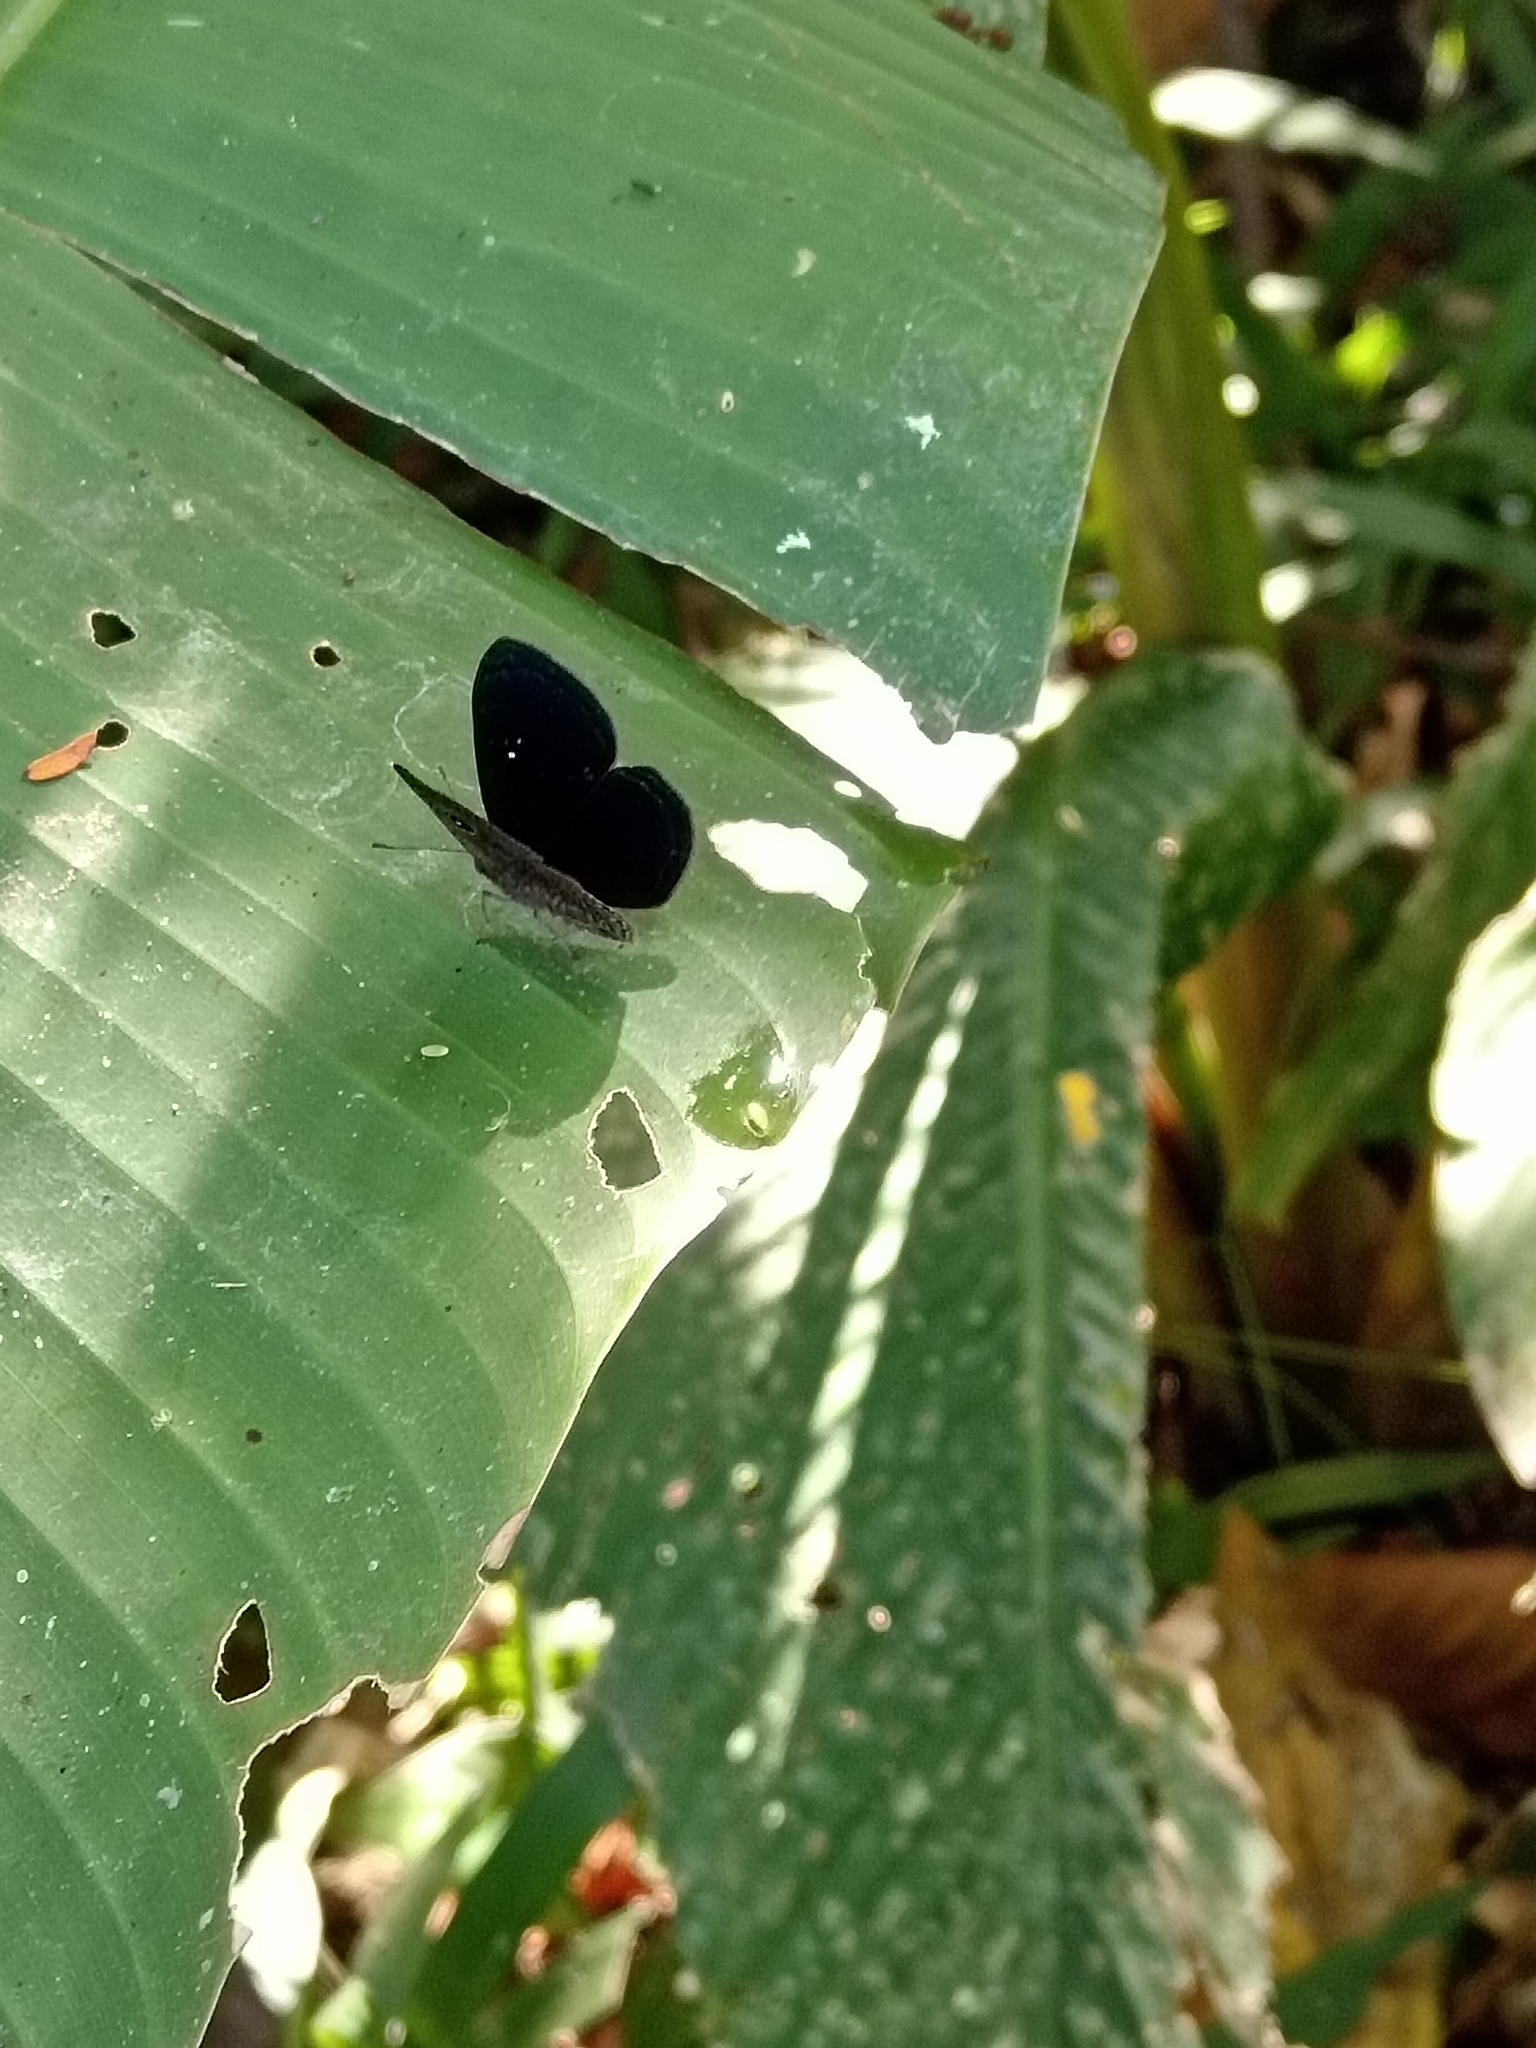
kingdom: Animalia
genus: Mesosemia
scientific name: Mesosemia melpia
